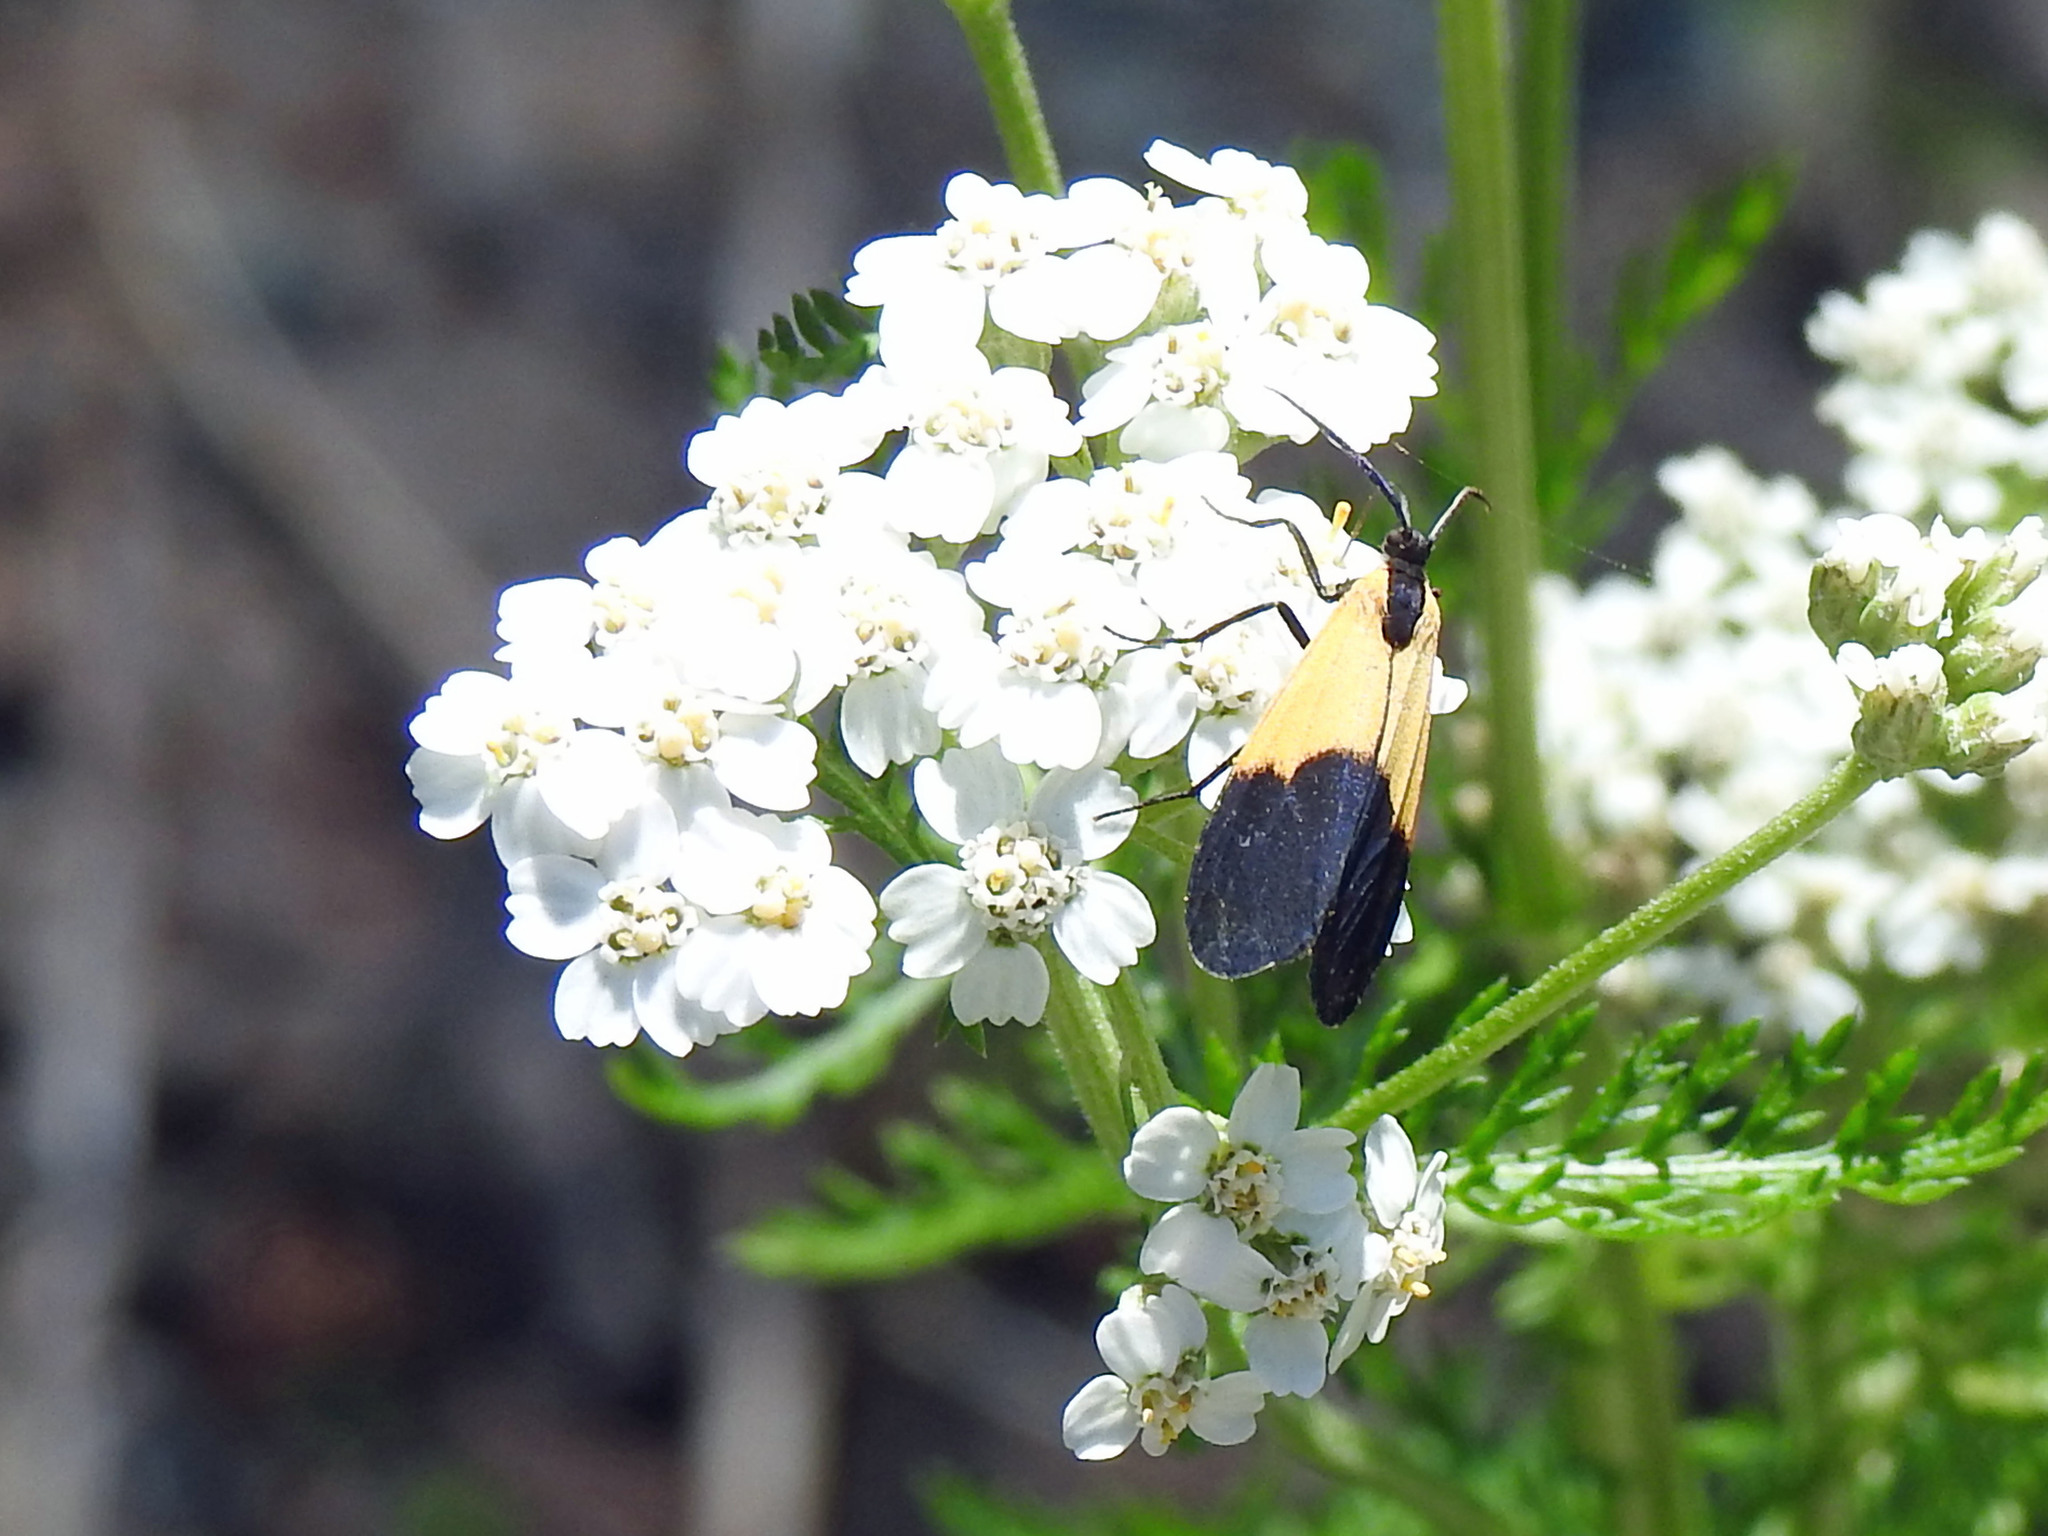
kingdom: Animalia
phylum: Arthropoda
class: Insecta
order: Lepidoptera
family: Erebidae
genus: Lycomorpha
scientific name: Lycomorpha pholus
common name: Black-and-yellow lichen moth
